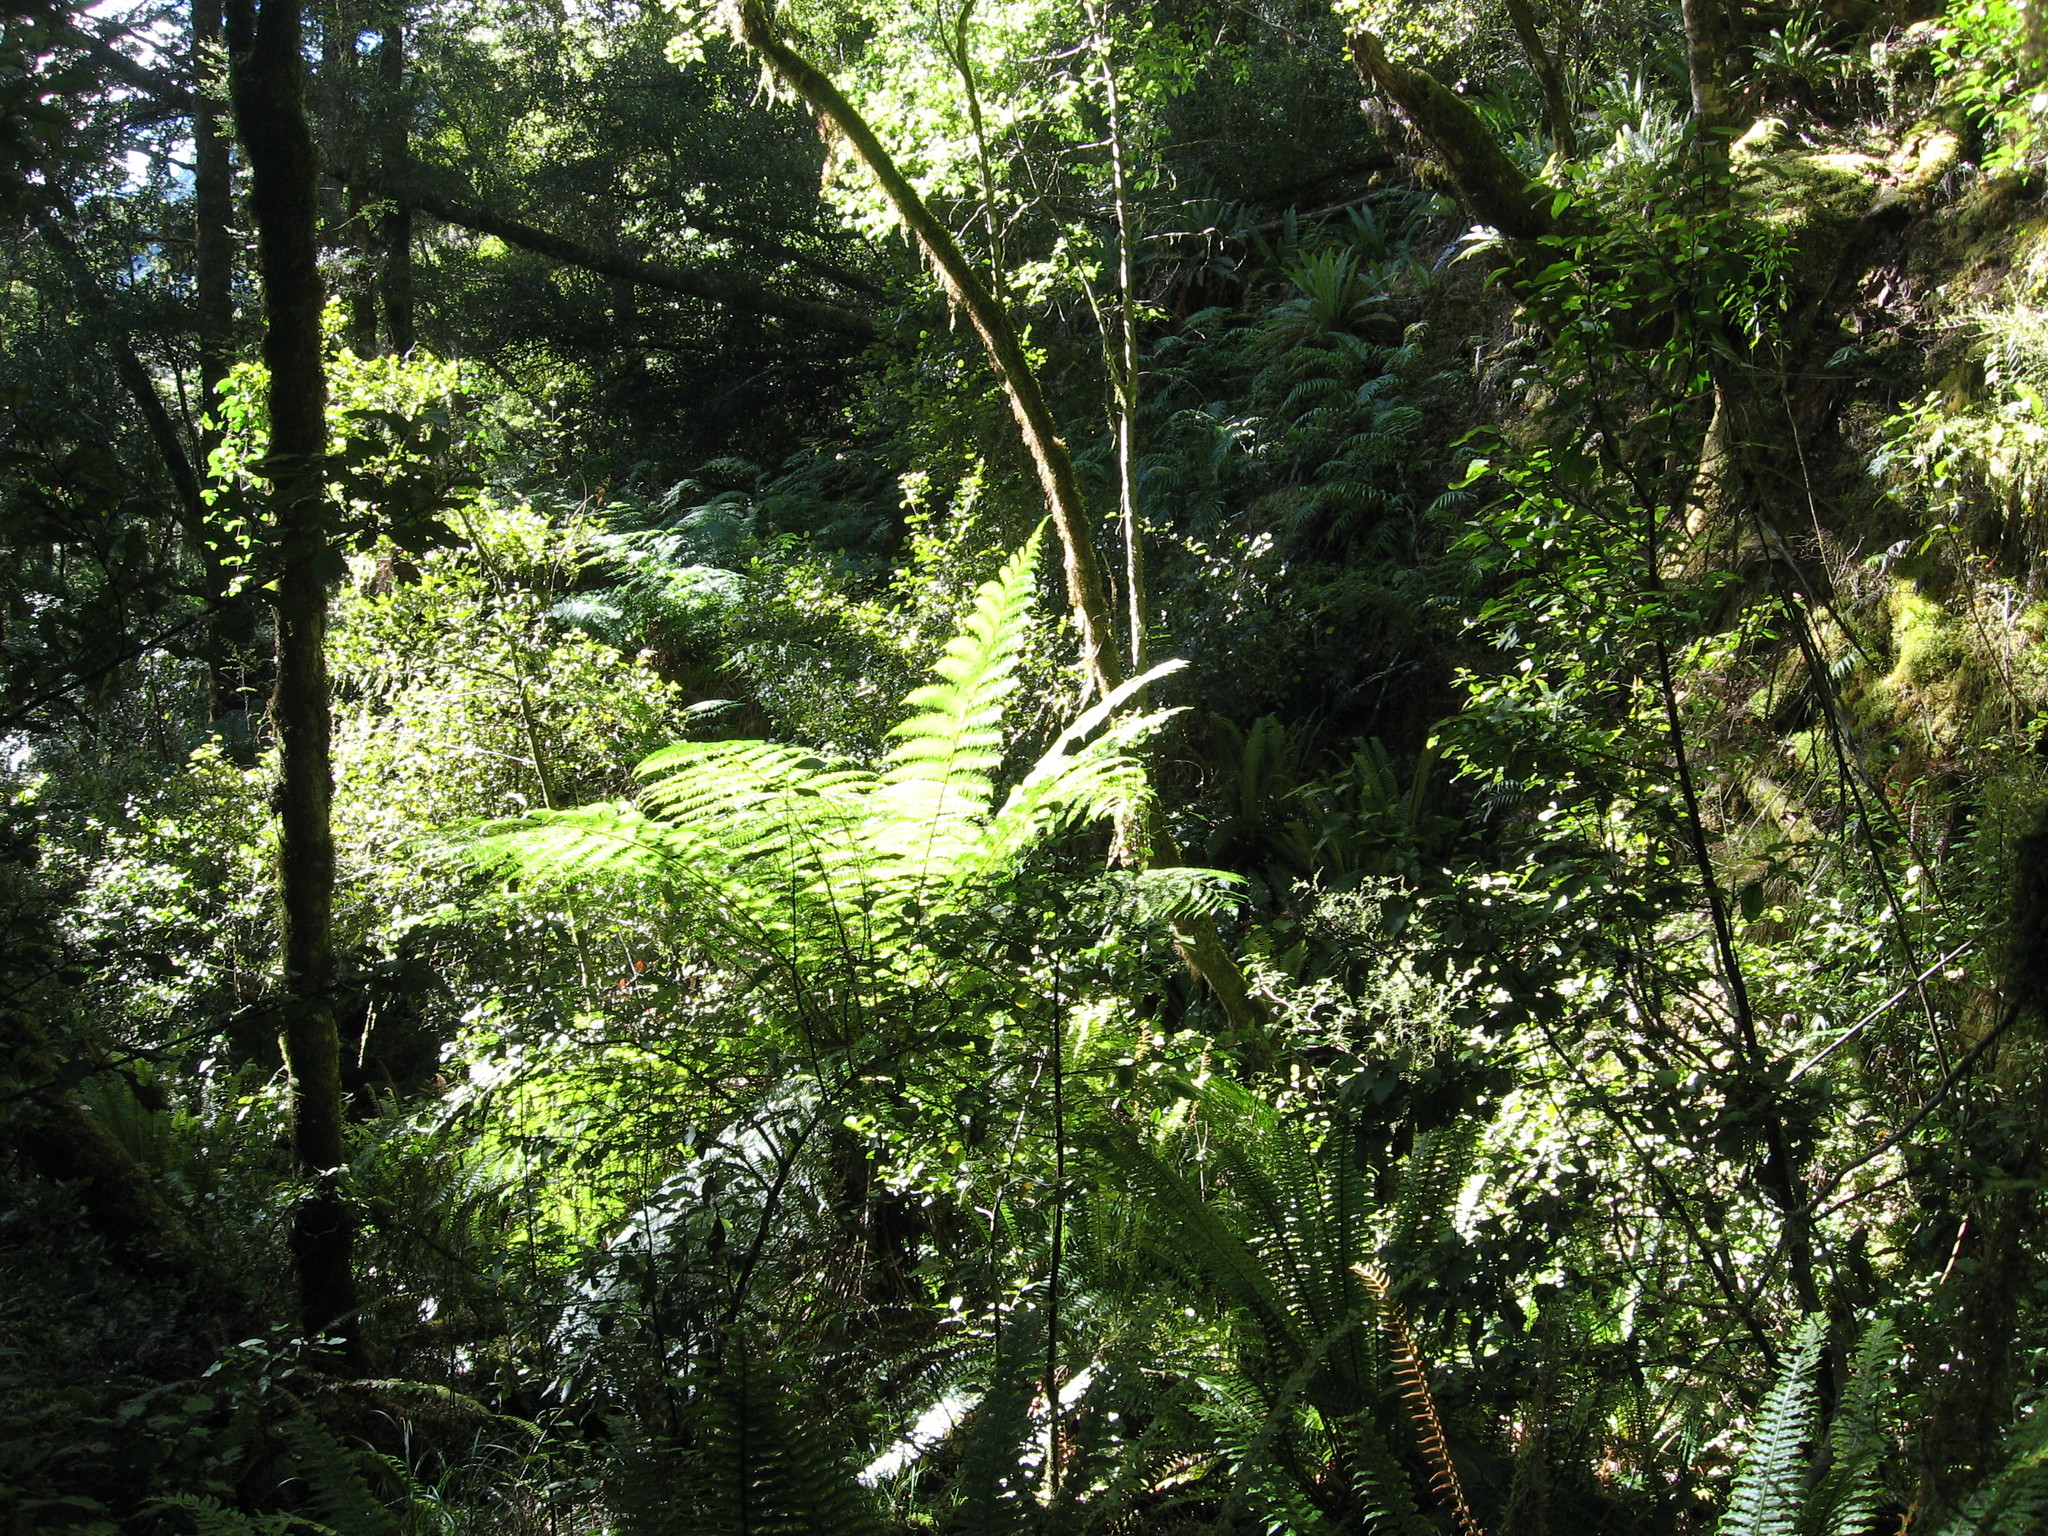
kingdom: Plantae
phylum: Tracheophyta
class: Polypodiopsida
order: Cyatheales
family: Cyatheaceae
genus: Alsophila
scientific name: Alsophila smithii
